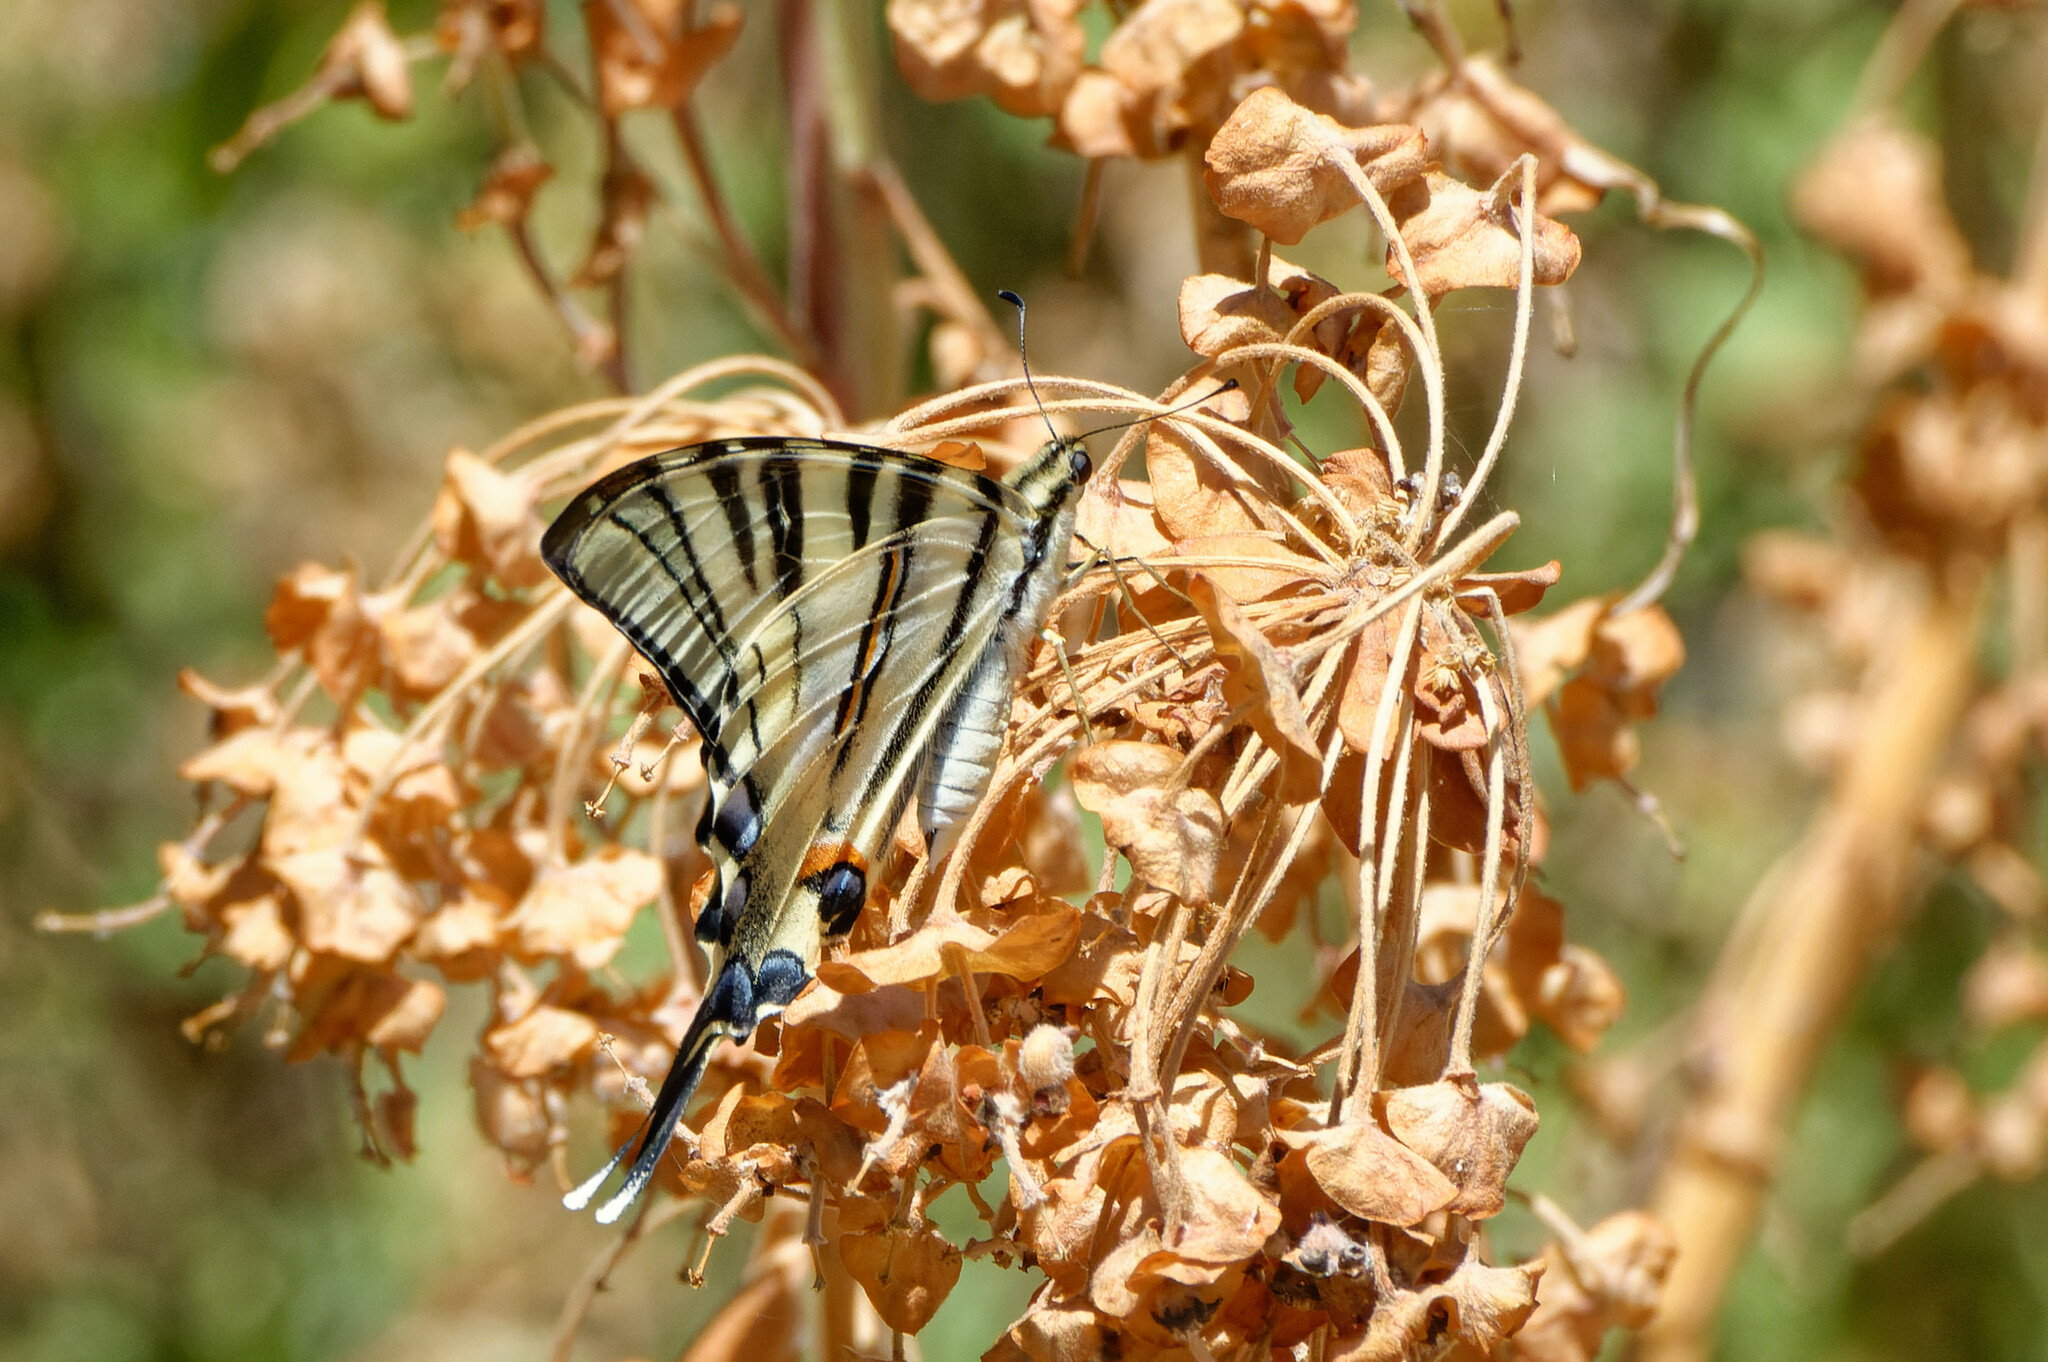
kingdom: Animalia
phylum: Arthropoda
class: Insecta
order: Lepidoptera
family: Papilionidae
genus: Iphiclides
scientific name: Iphiclides podalirius
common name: Scarce swallowtail
